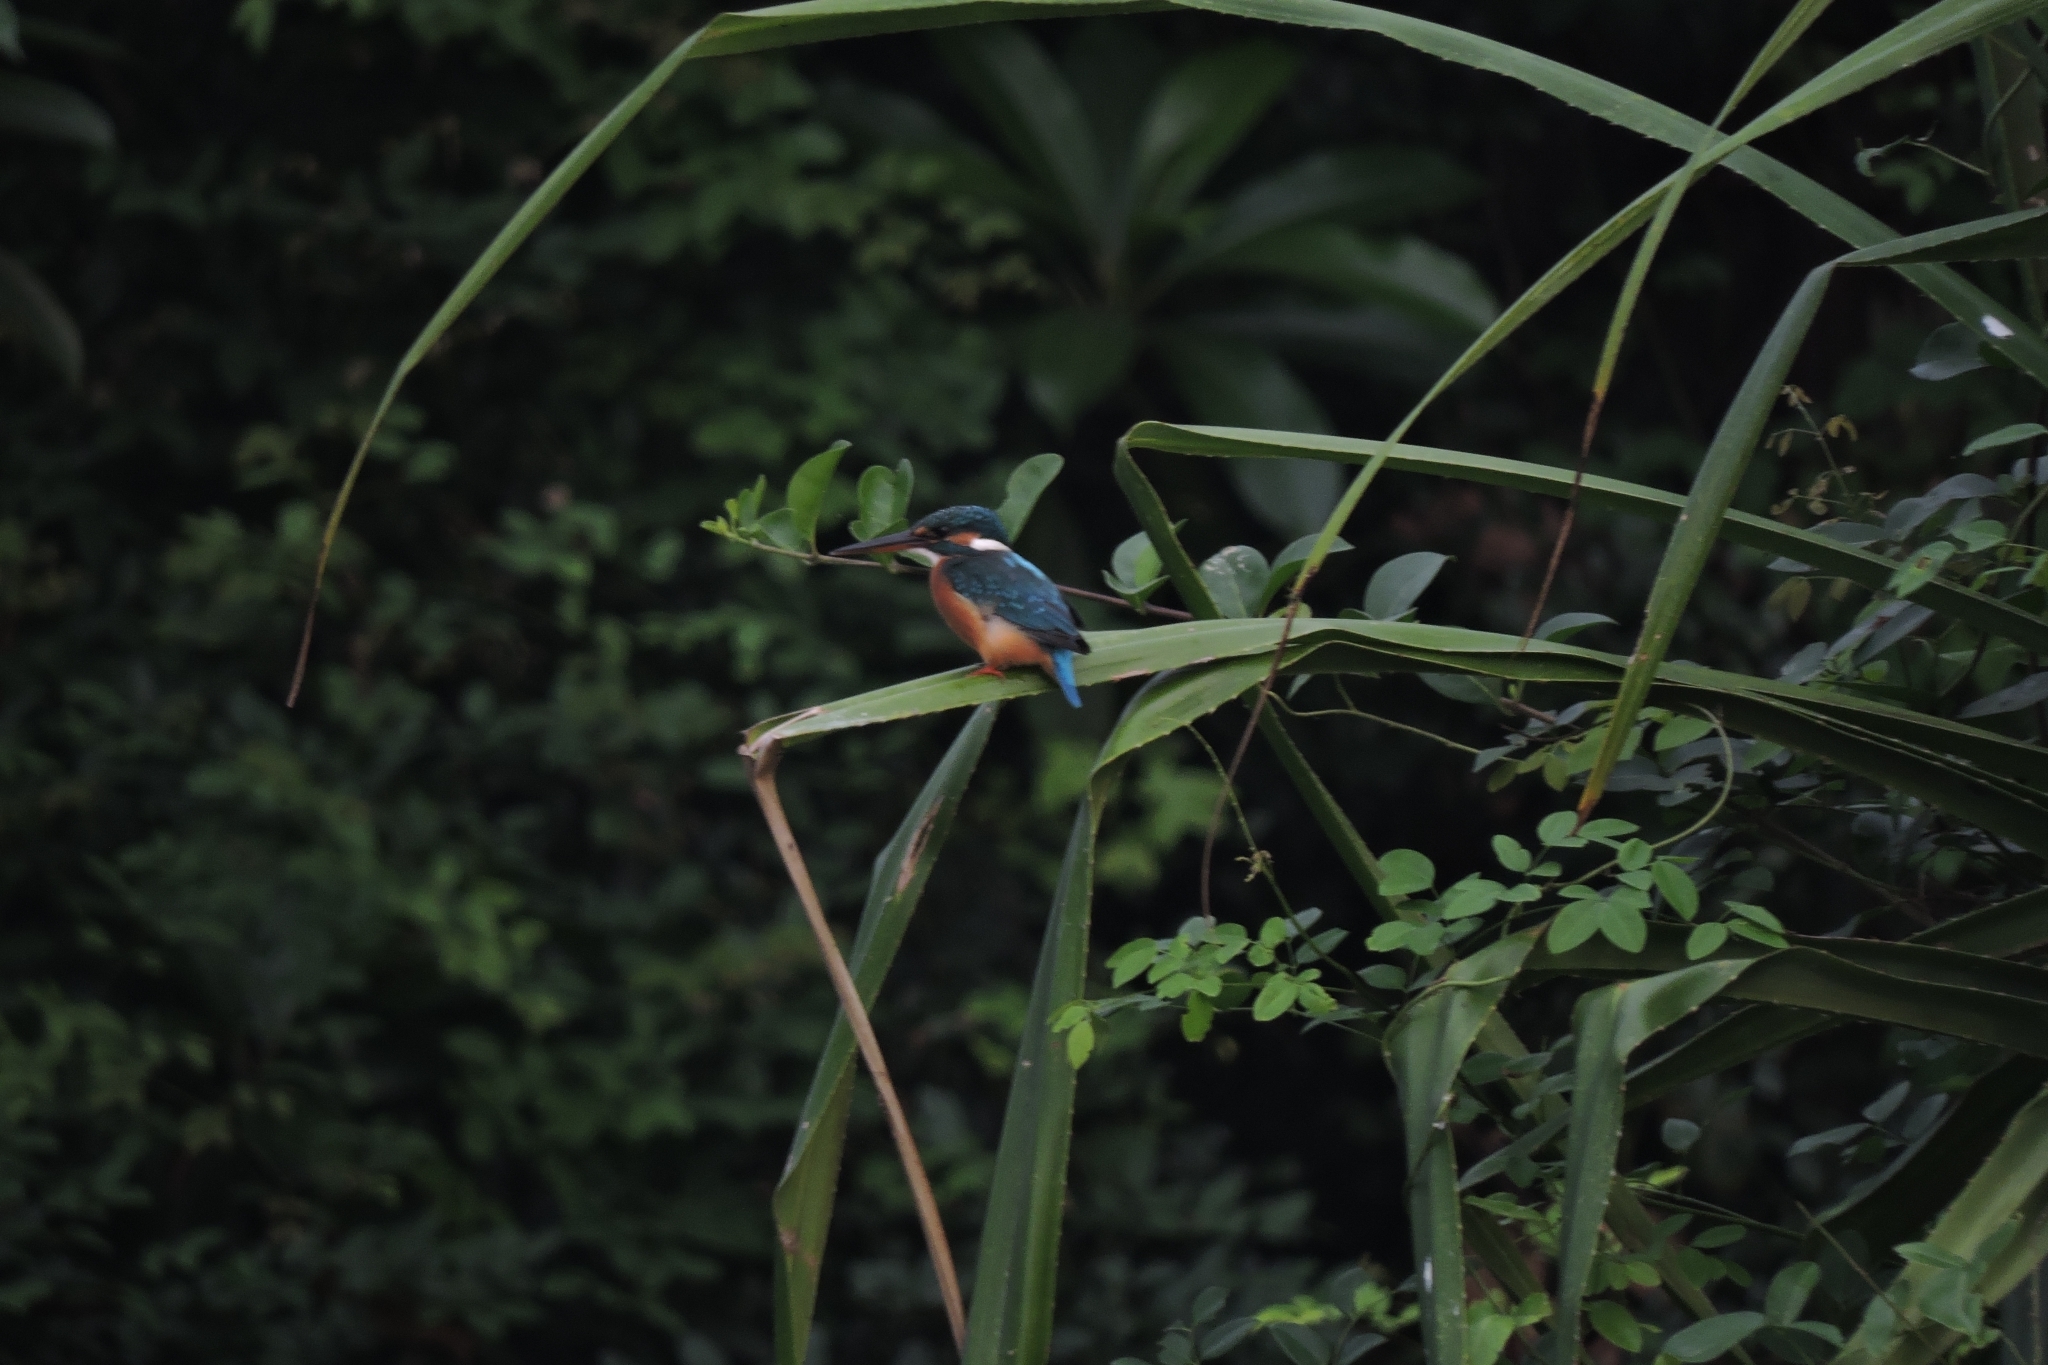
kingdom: Animalia
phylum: Chordata
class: Aves
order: Coraciiformes
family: Alcedinidae
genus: Alcedo
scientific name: Alcedo atthis
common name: Common kingfisher
